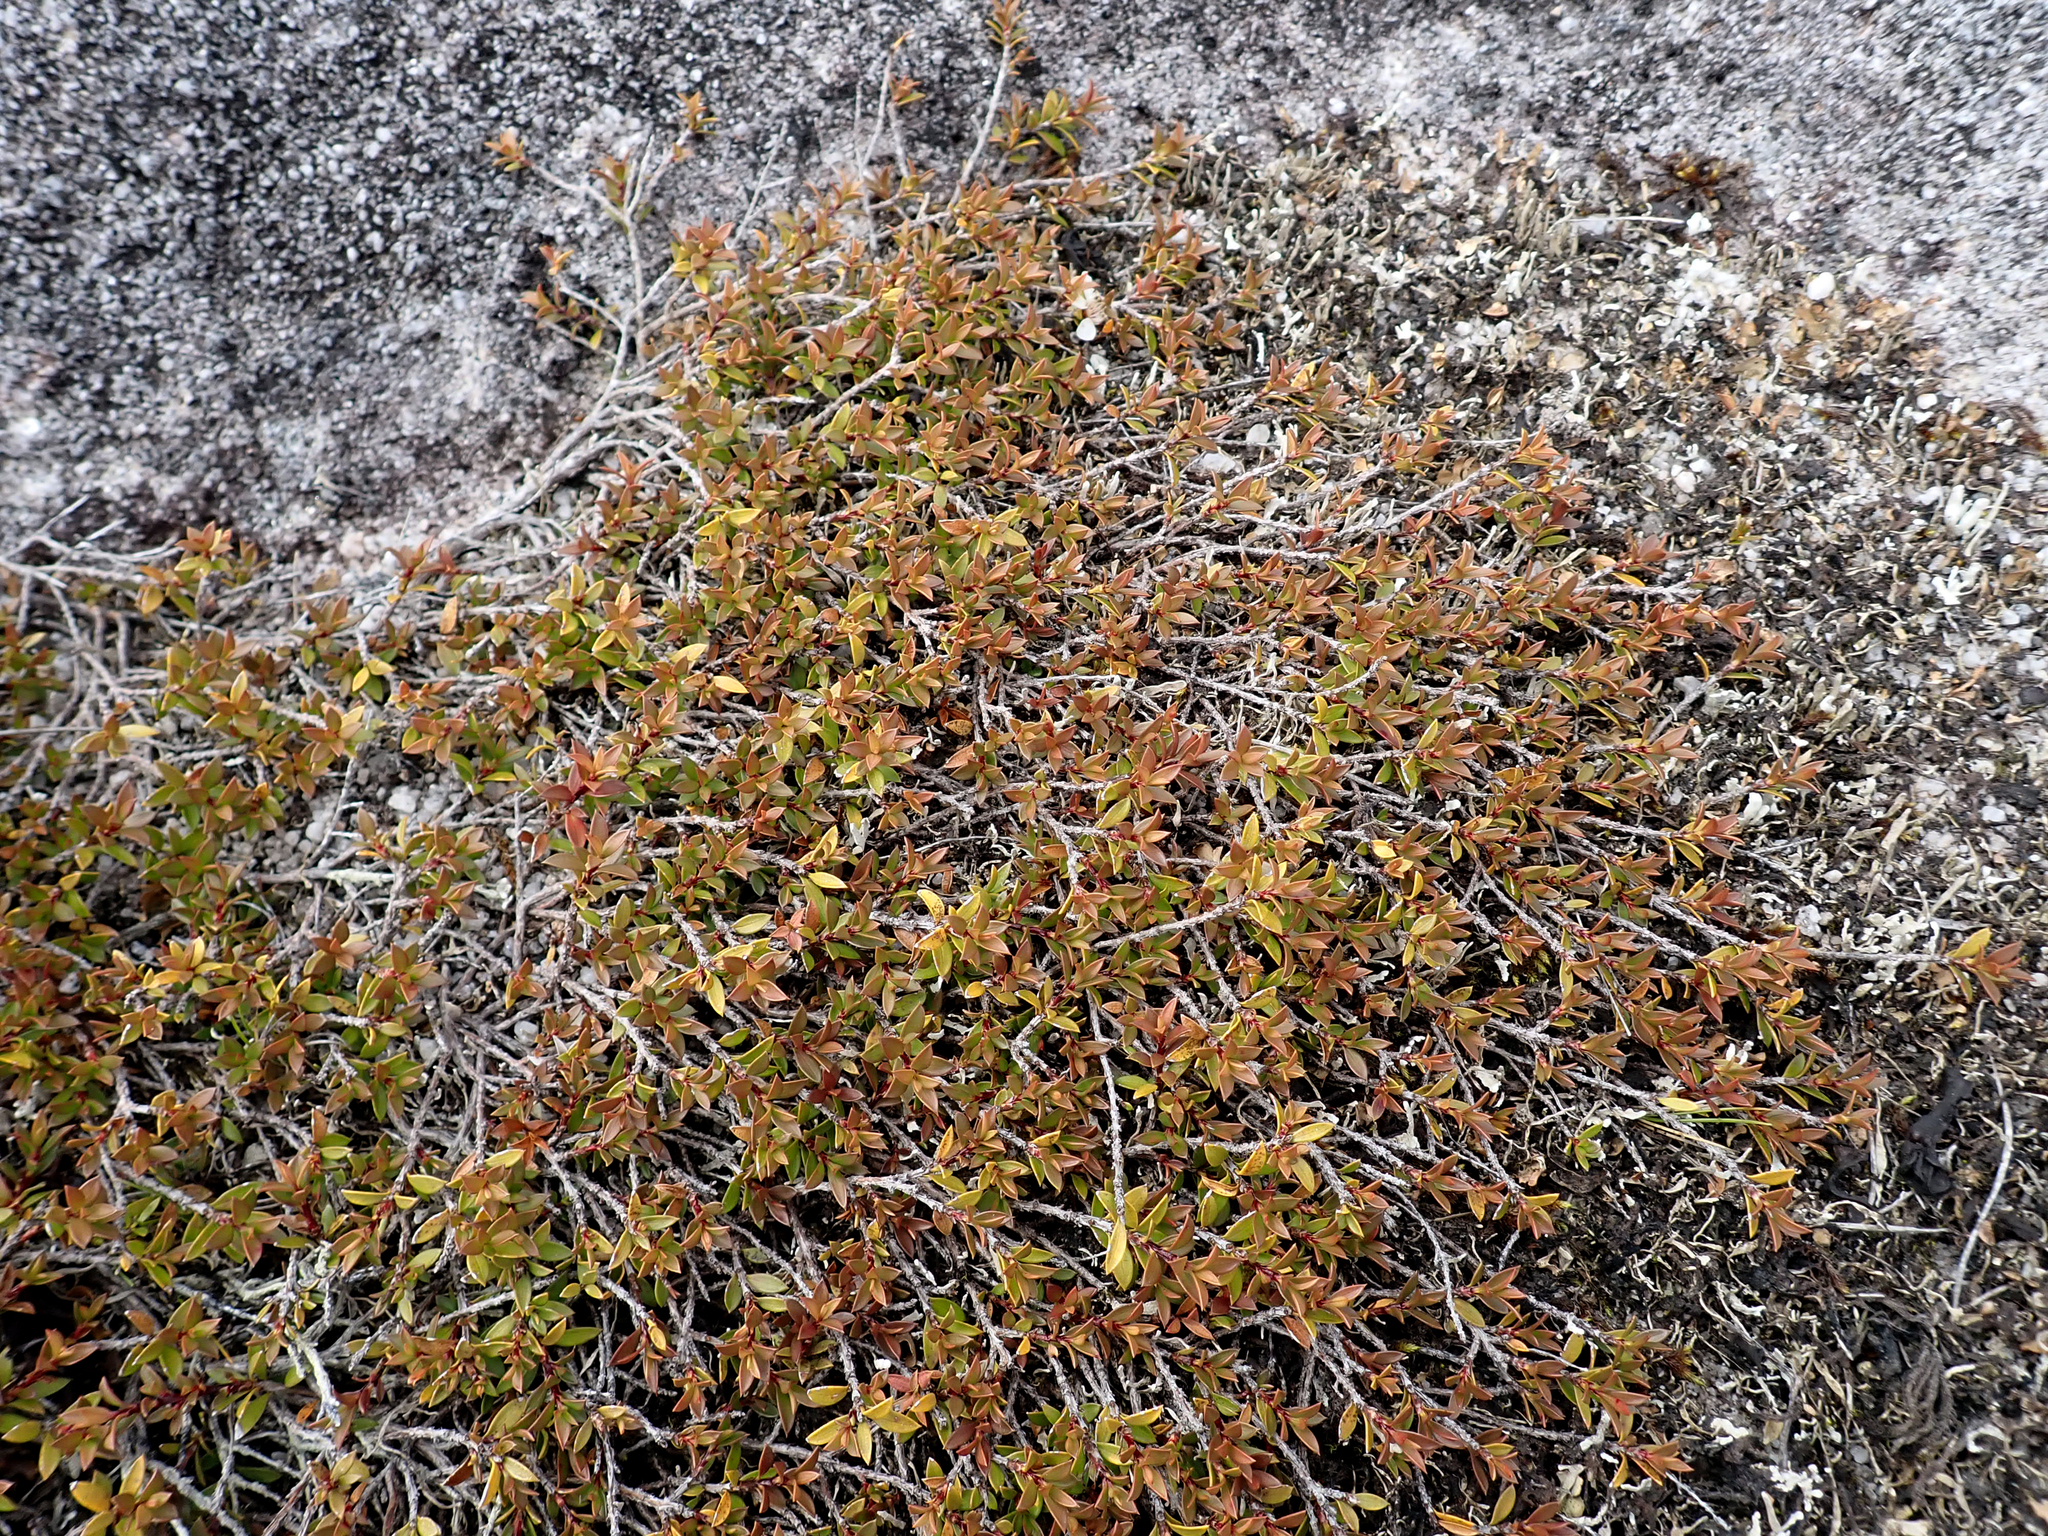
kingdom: Plantae
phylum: Tracheophyta
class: Magnoliopsida
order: Myrtales
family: Myrtaceae
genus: Leptospermum
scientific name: Leptospermum scoparium
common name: Broom tea-tree
